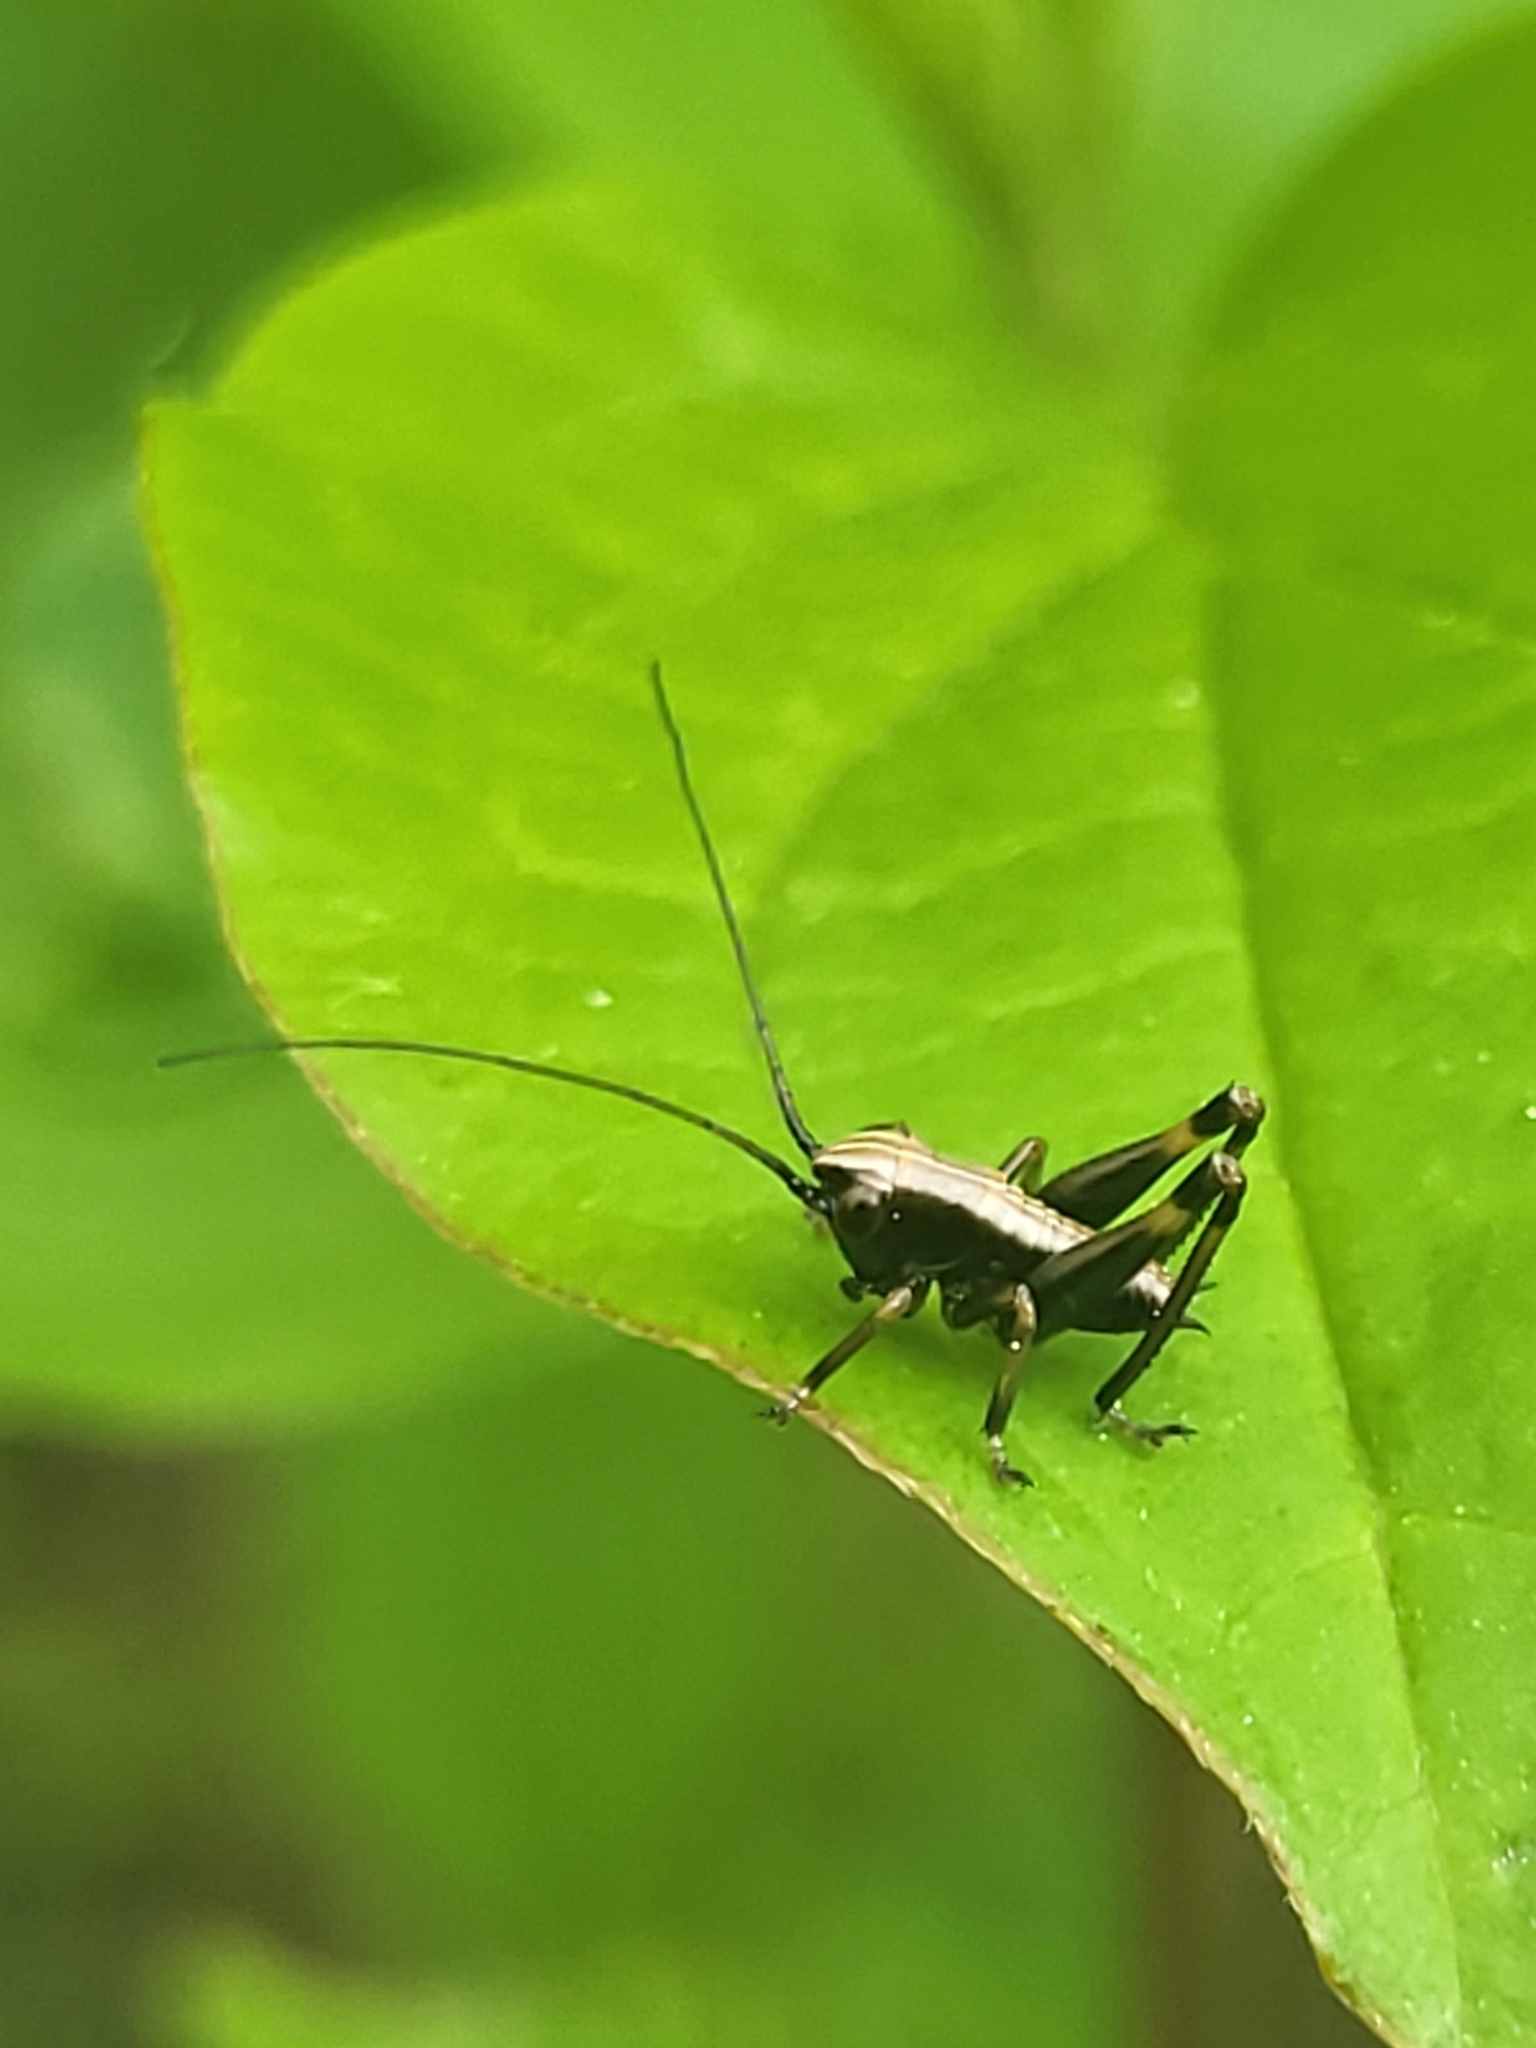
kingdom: Animalia
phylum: Arthropoda
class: Insecta
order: Orthoptera
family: Tettigoniidae
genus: Pholidoptera
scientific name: Pholidoptera griseoaptera
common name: Dark bush-cricket
